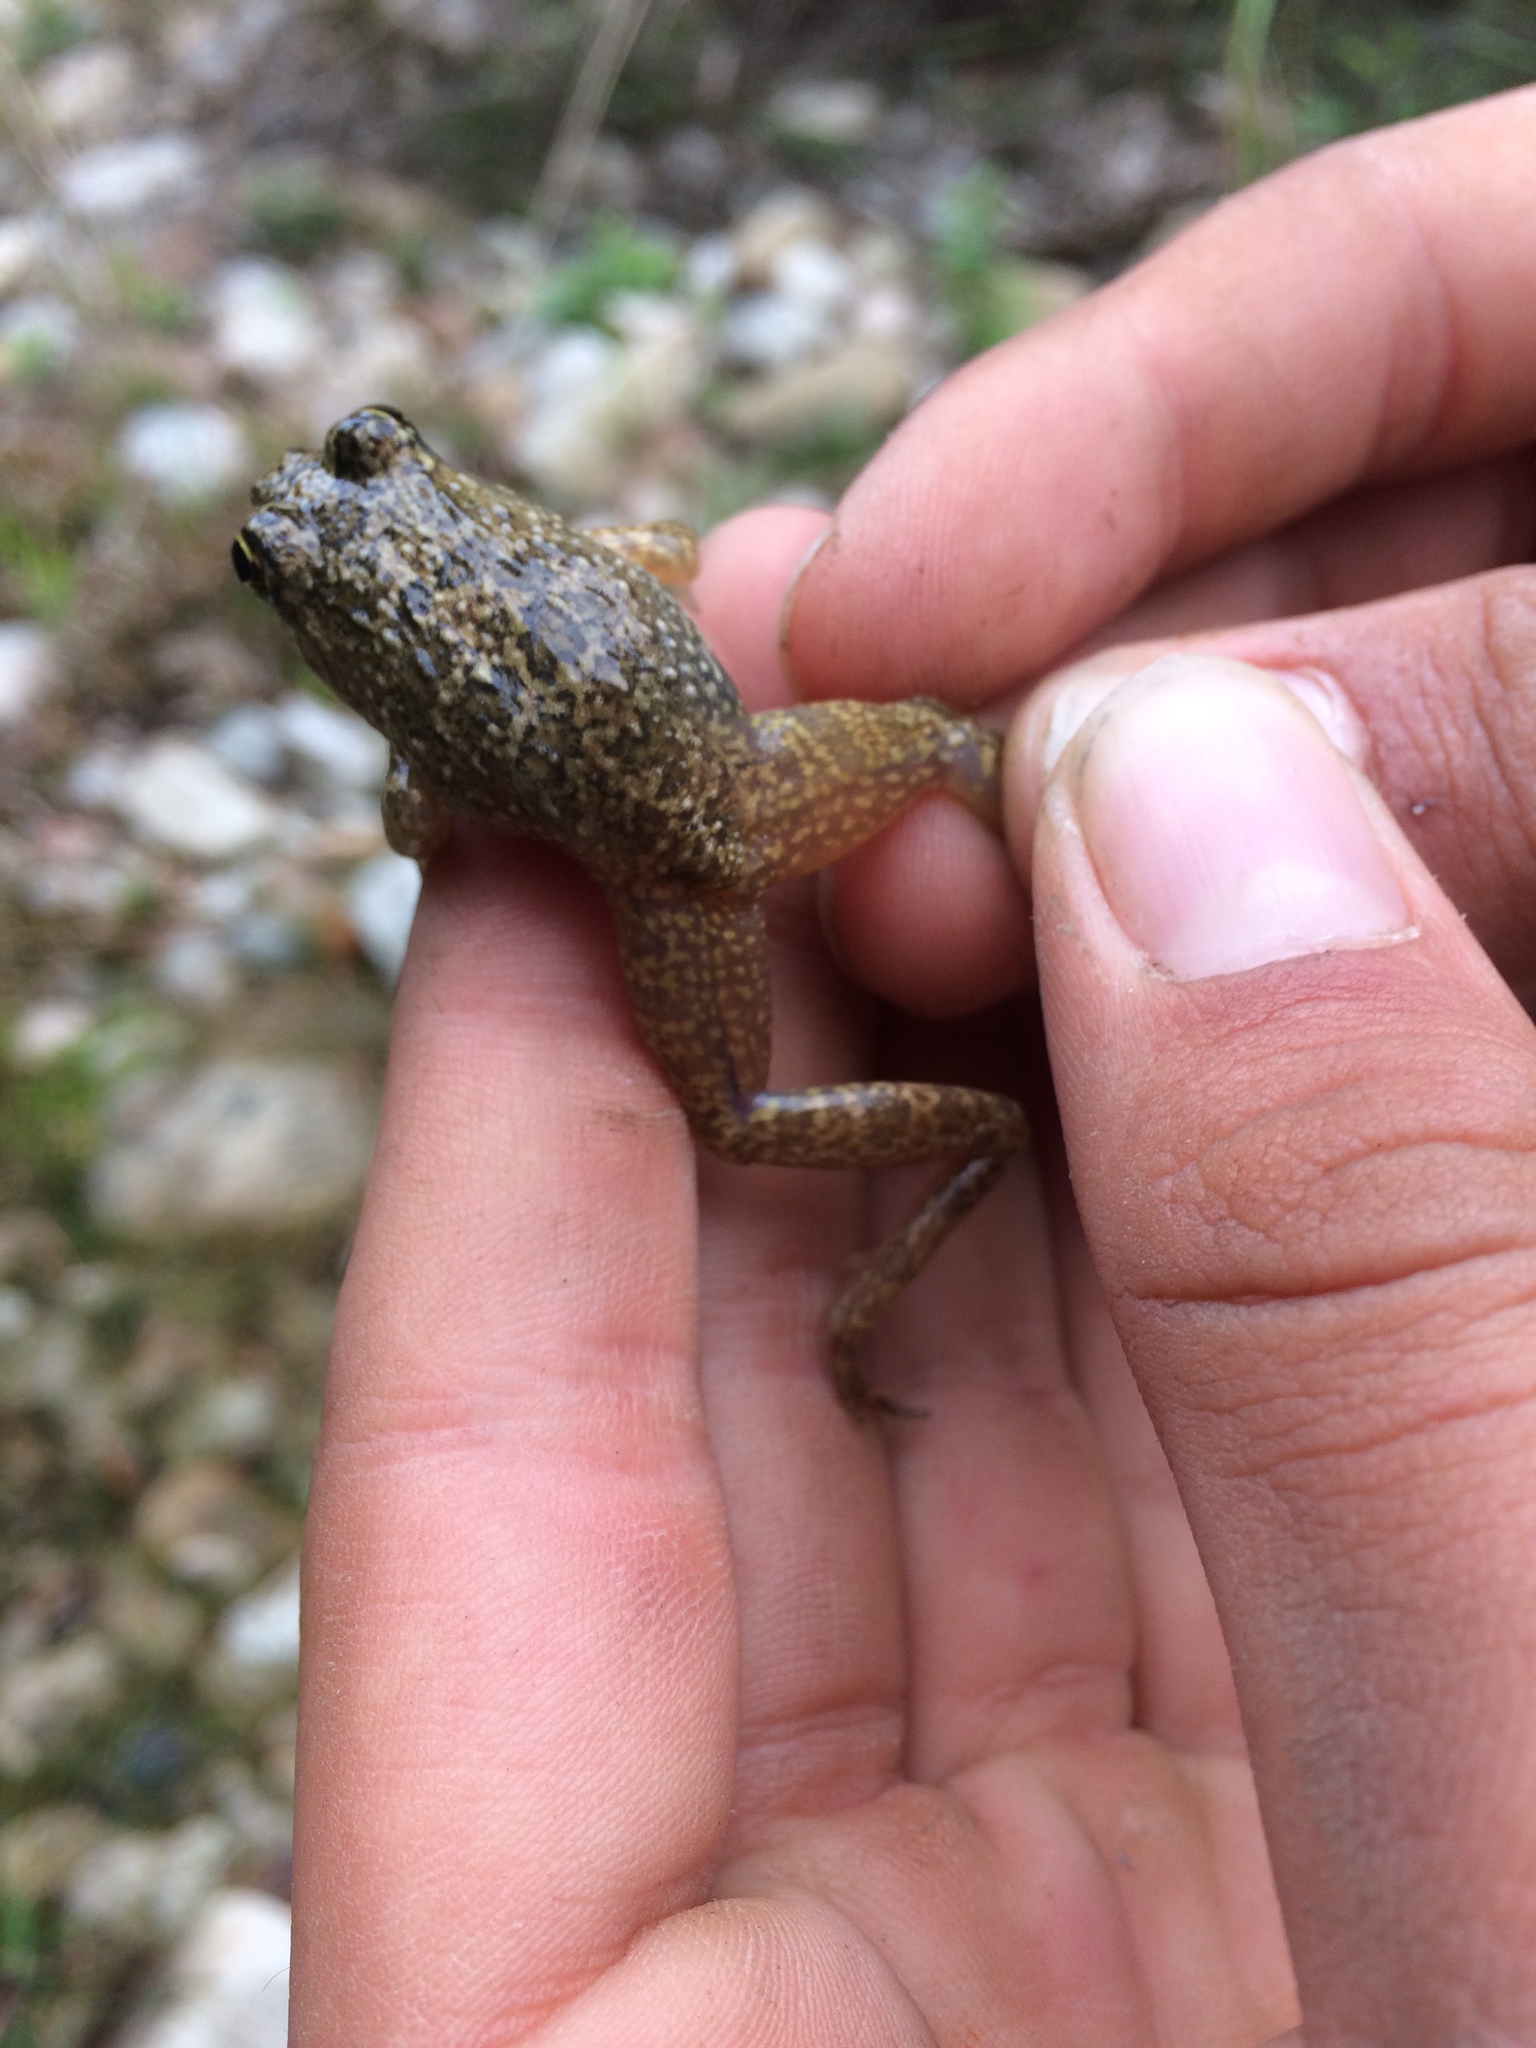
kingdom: Animalia
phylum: Chordata
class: Amphibia
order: Anura
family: Pyxicephalidae
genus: Amietia
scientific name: Amietia fuscigula
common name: Cape rana
